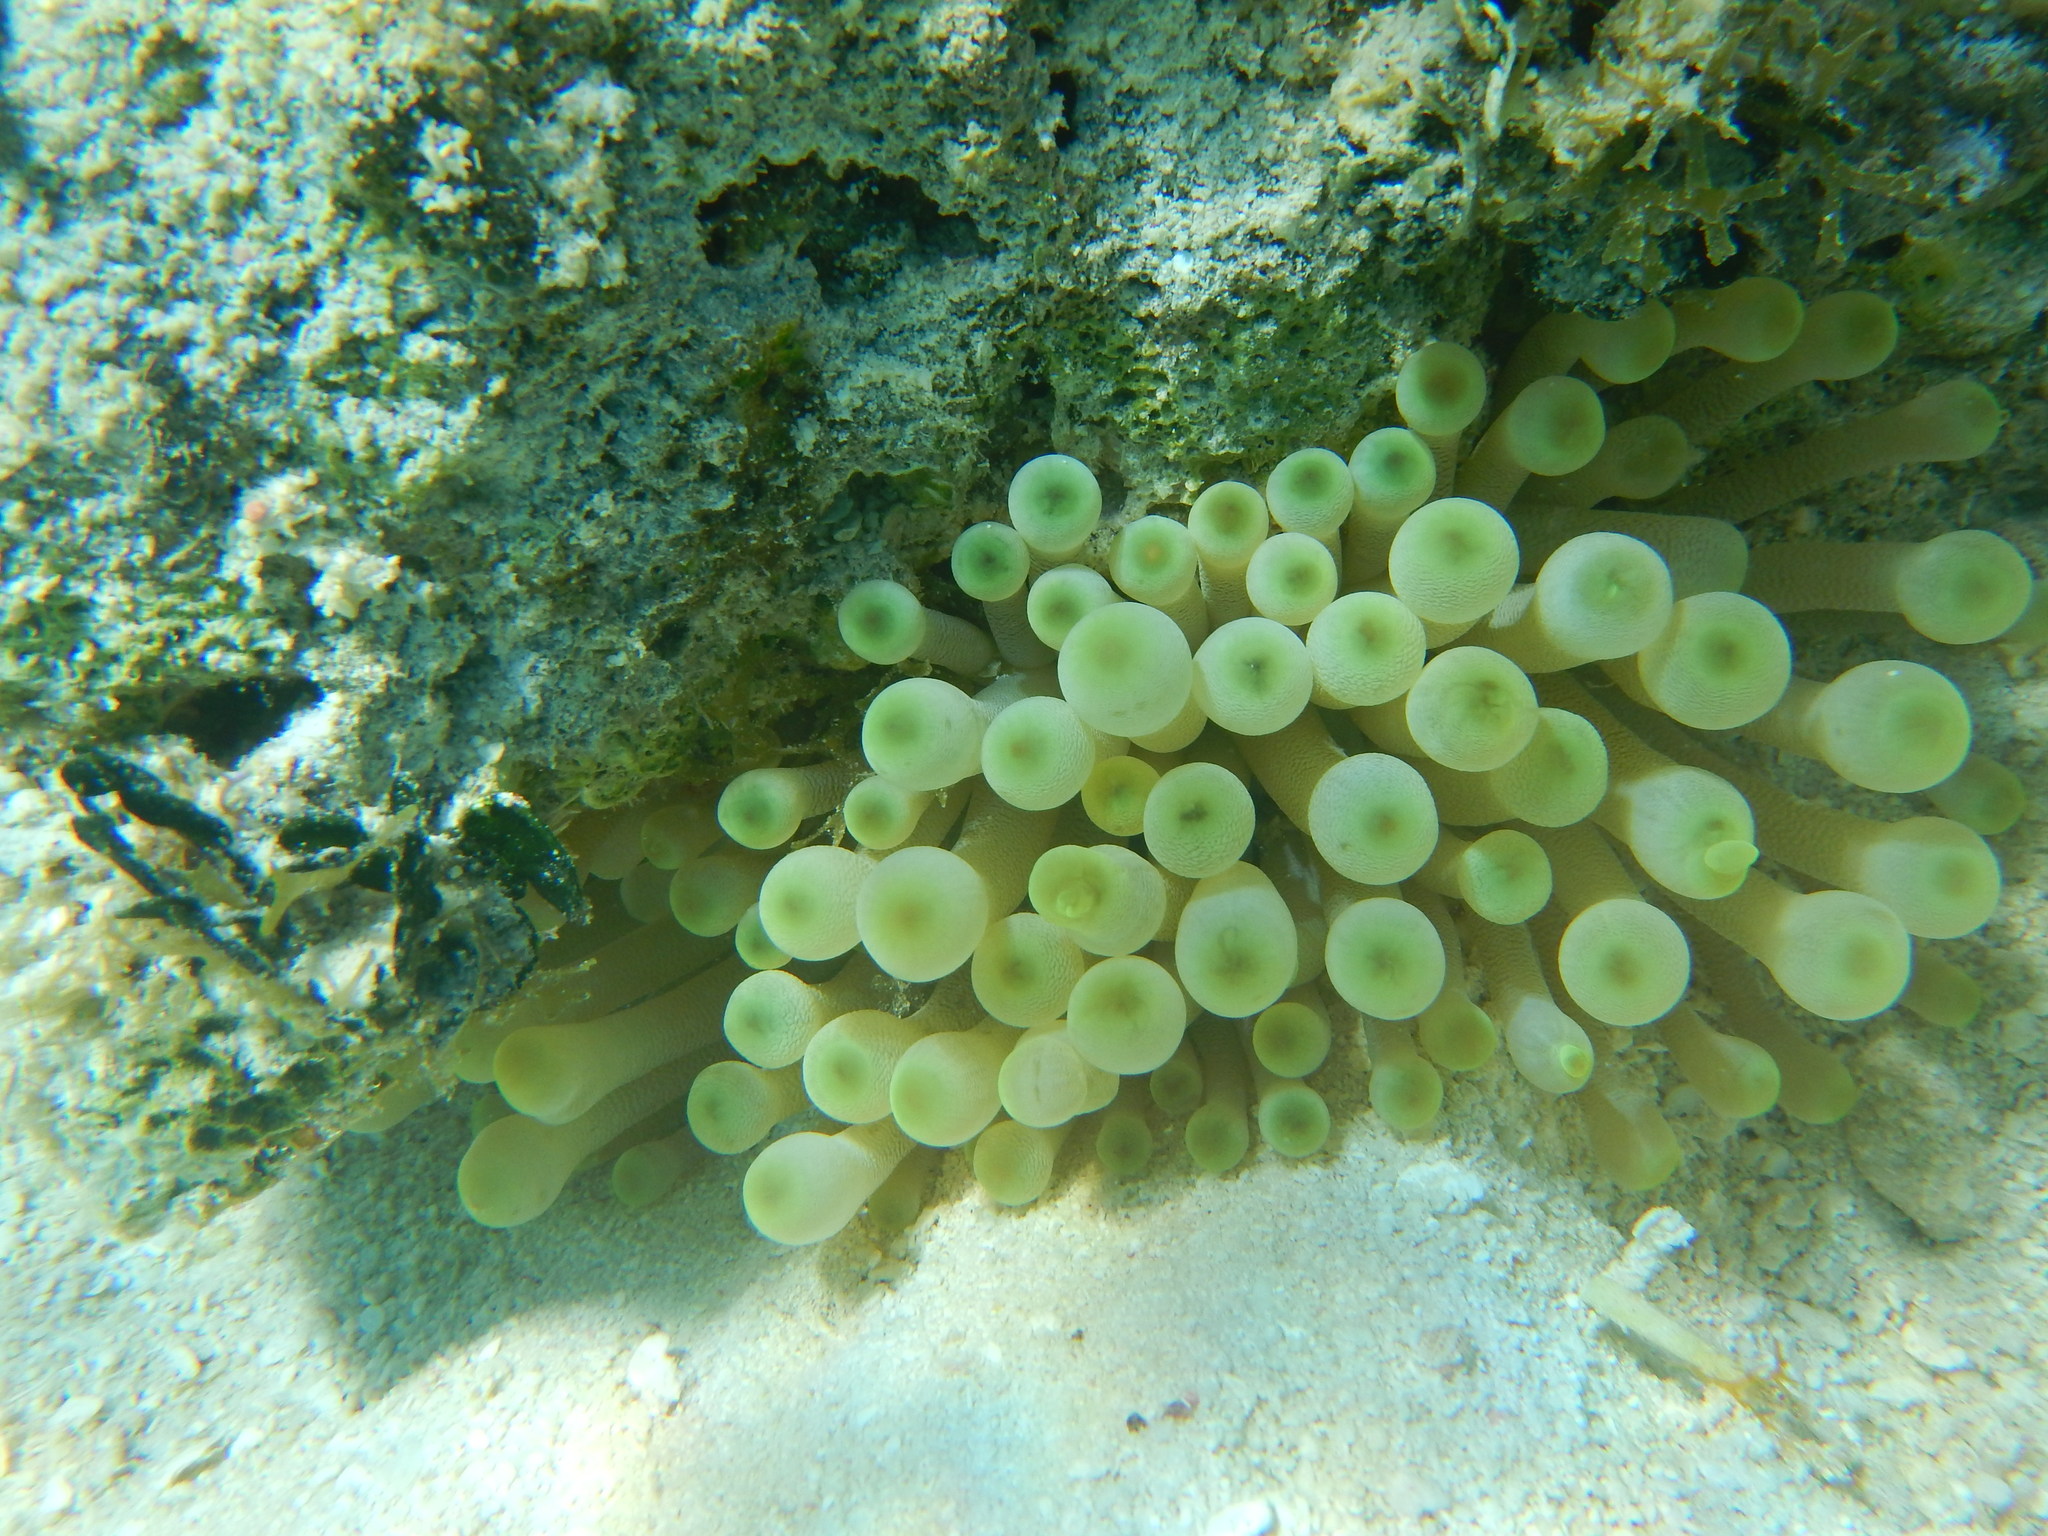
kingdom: Animalia
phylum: Cnidaria
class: Anthozoa
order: Actiniaria
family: Actiniidae
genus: Condylactis
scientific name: Condylactis gigantea
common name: Giant caribbean anemone
